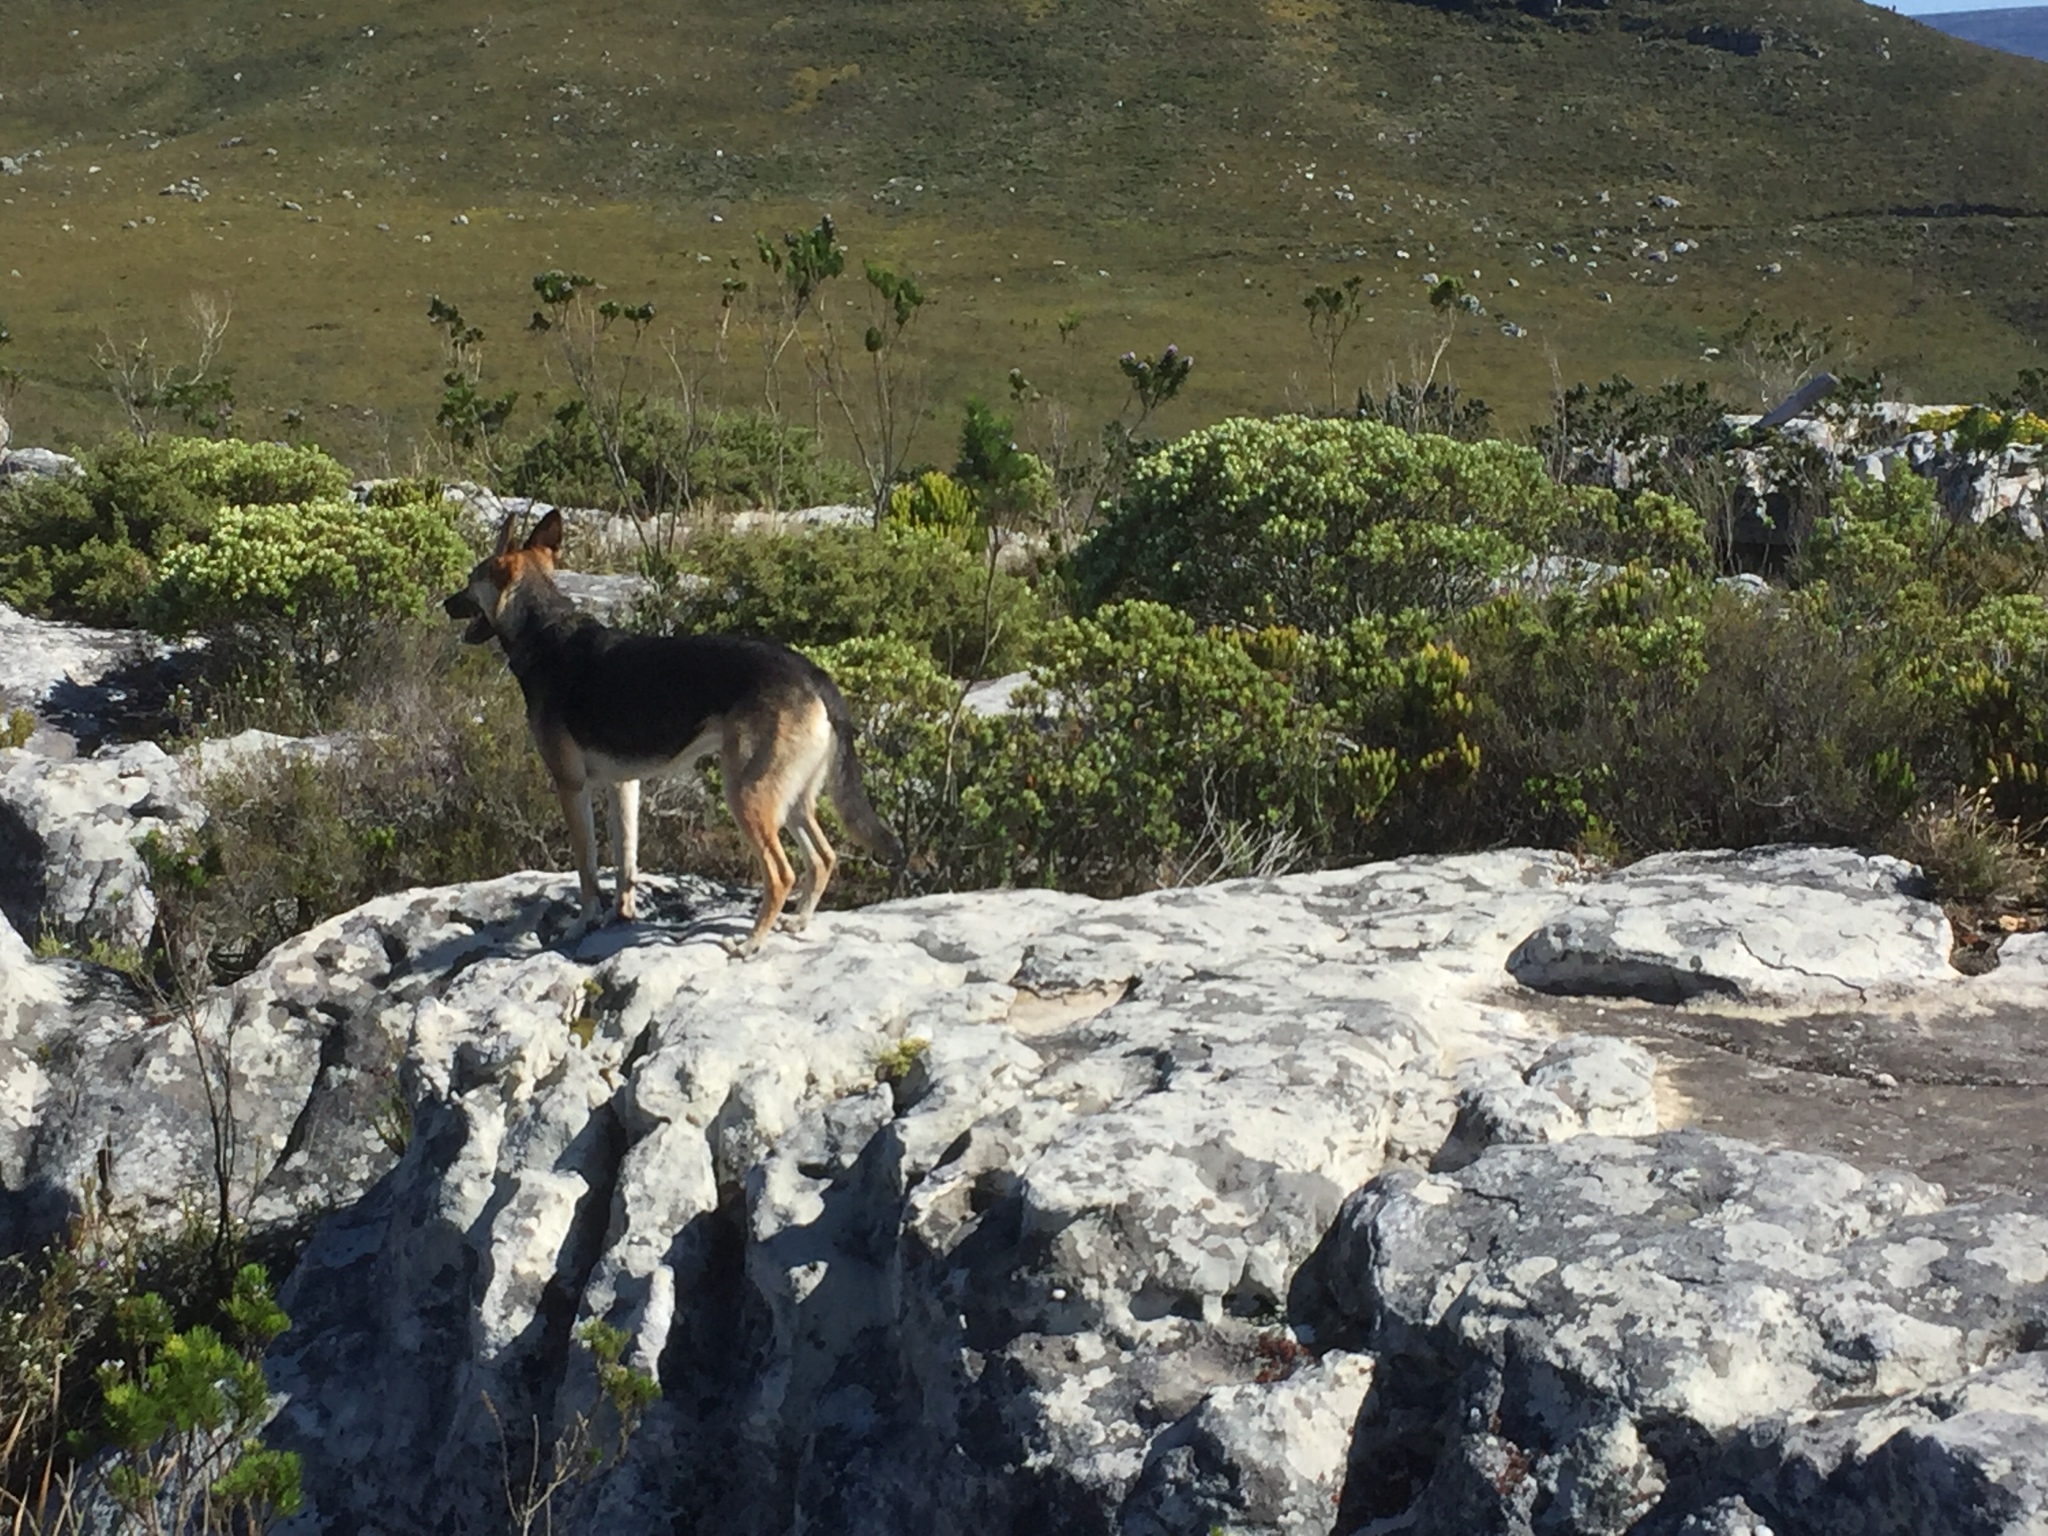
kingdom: Plantae
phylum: Tracheophyta
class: Magnoliopsida
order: Rosales
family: Rhamnaceae
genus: Phylica
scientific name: Phylica buxifolia
